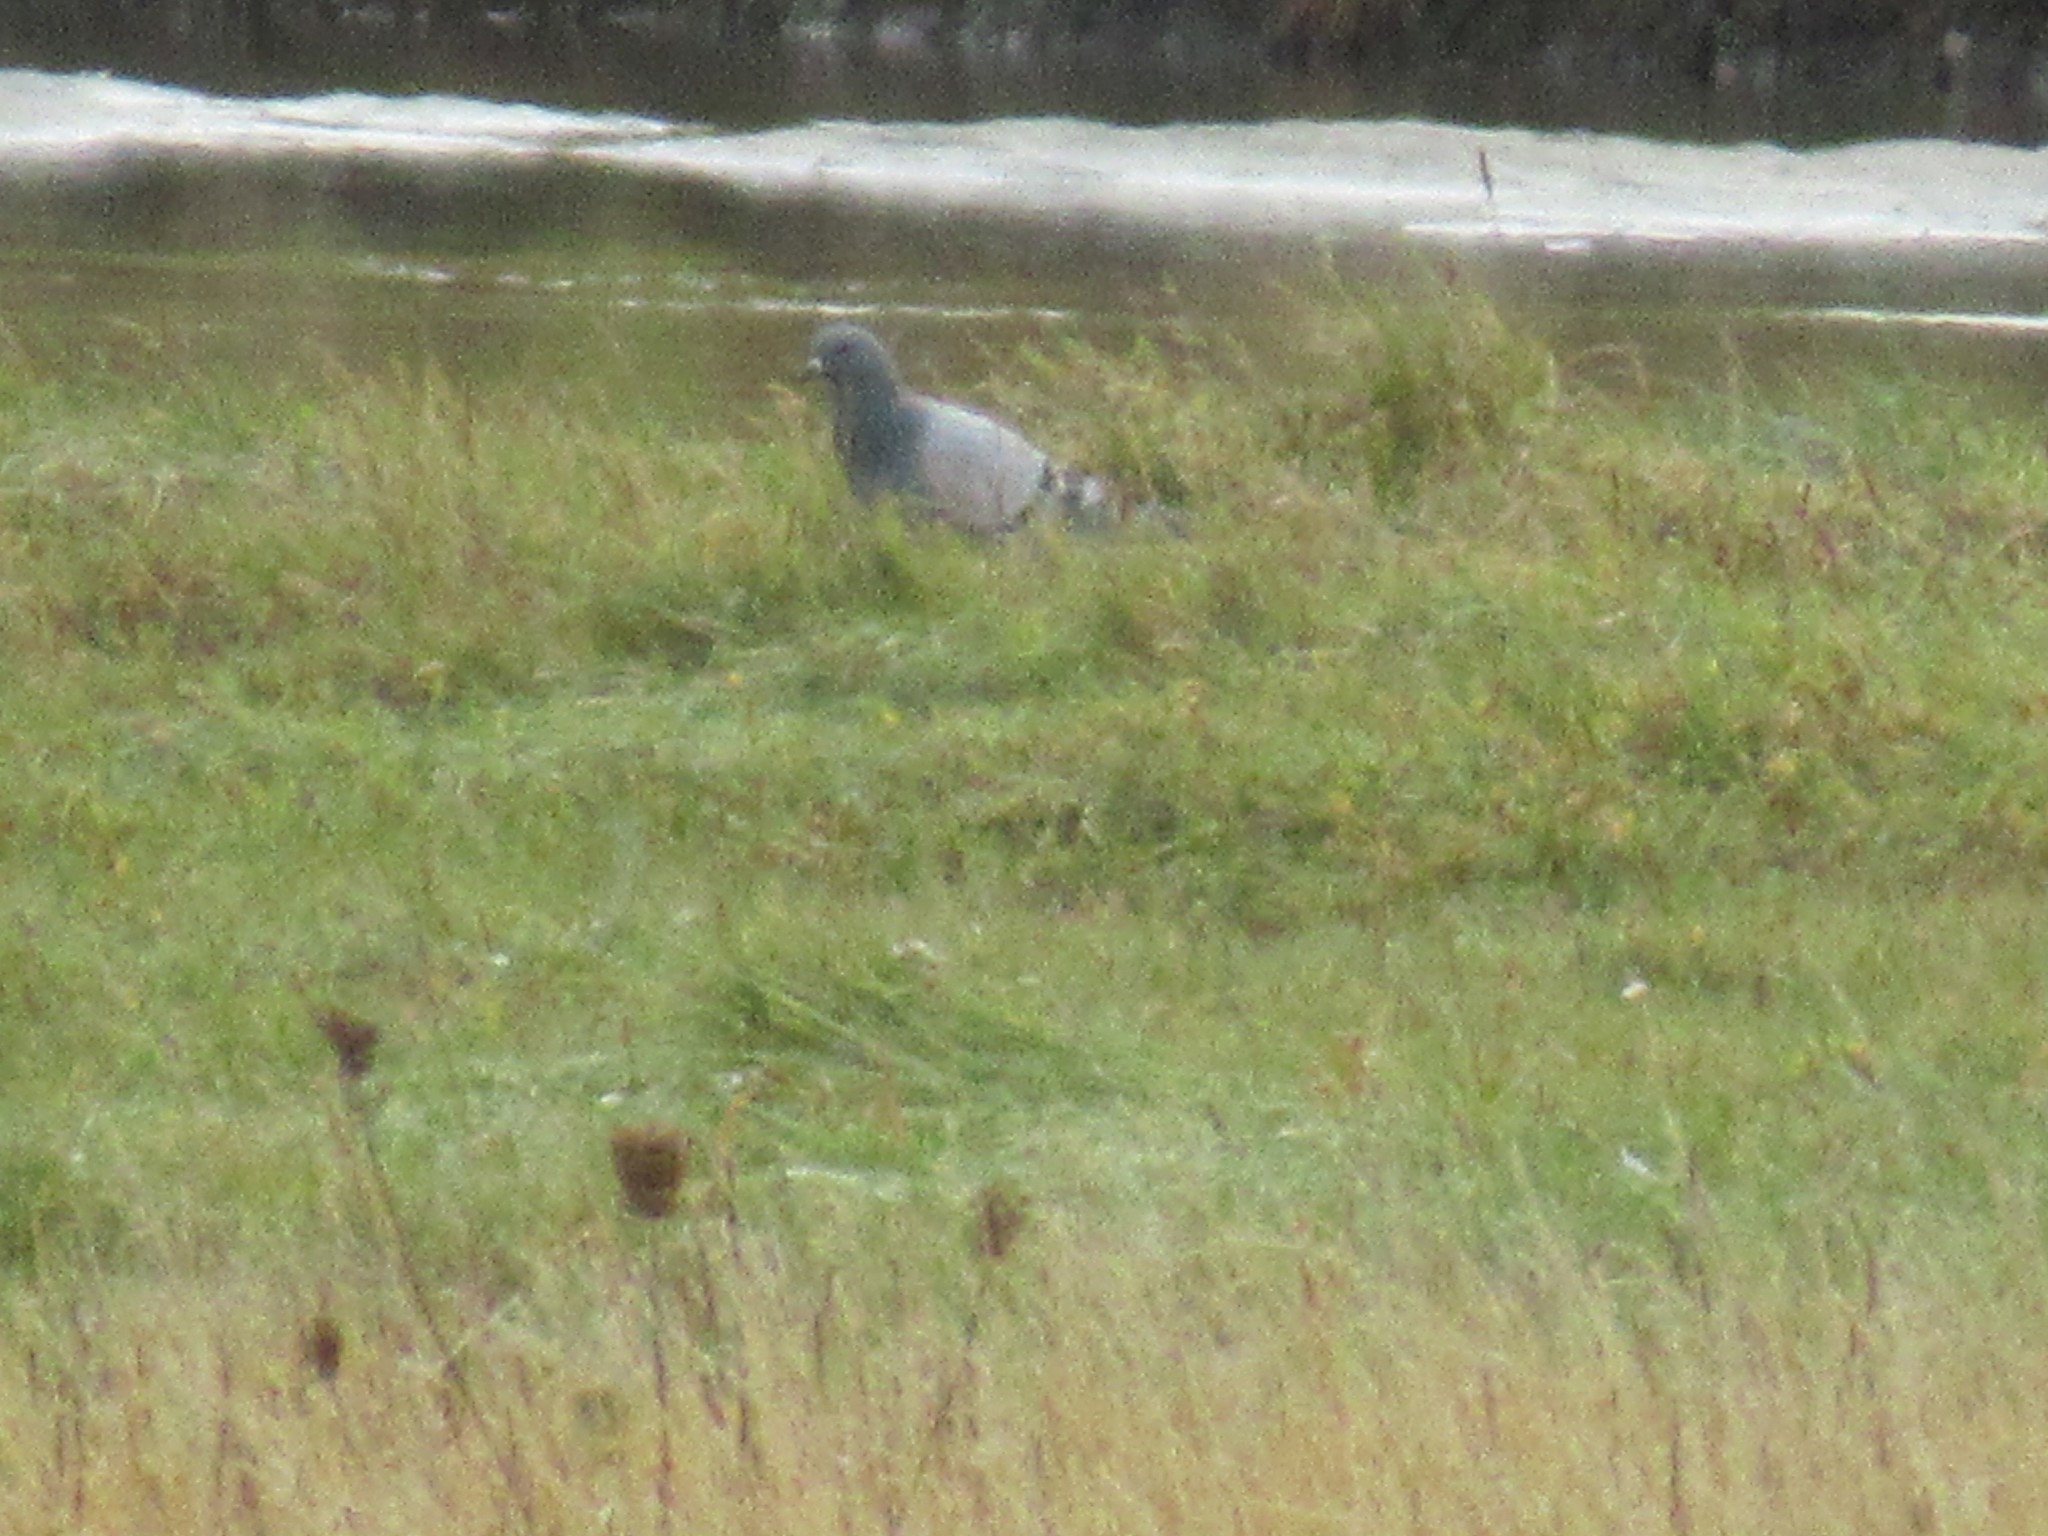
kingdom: Animalia
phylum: Chordata
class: Aves
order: Columbiformes
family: Columbidae
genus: Columba
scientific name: Columba livia
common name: Rock pigeon
